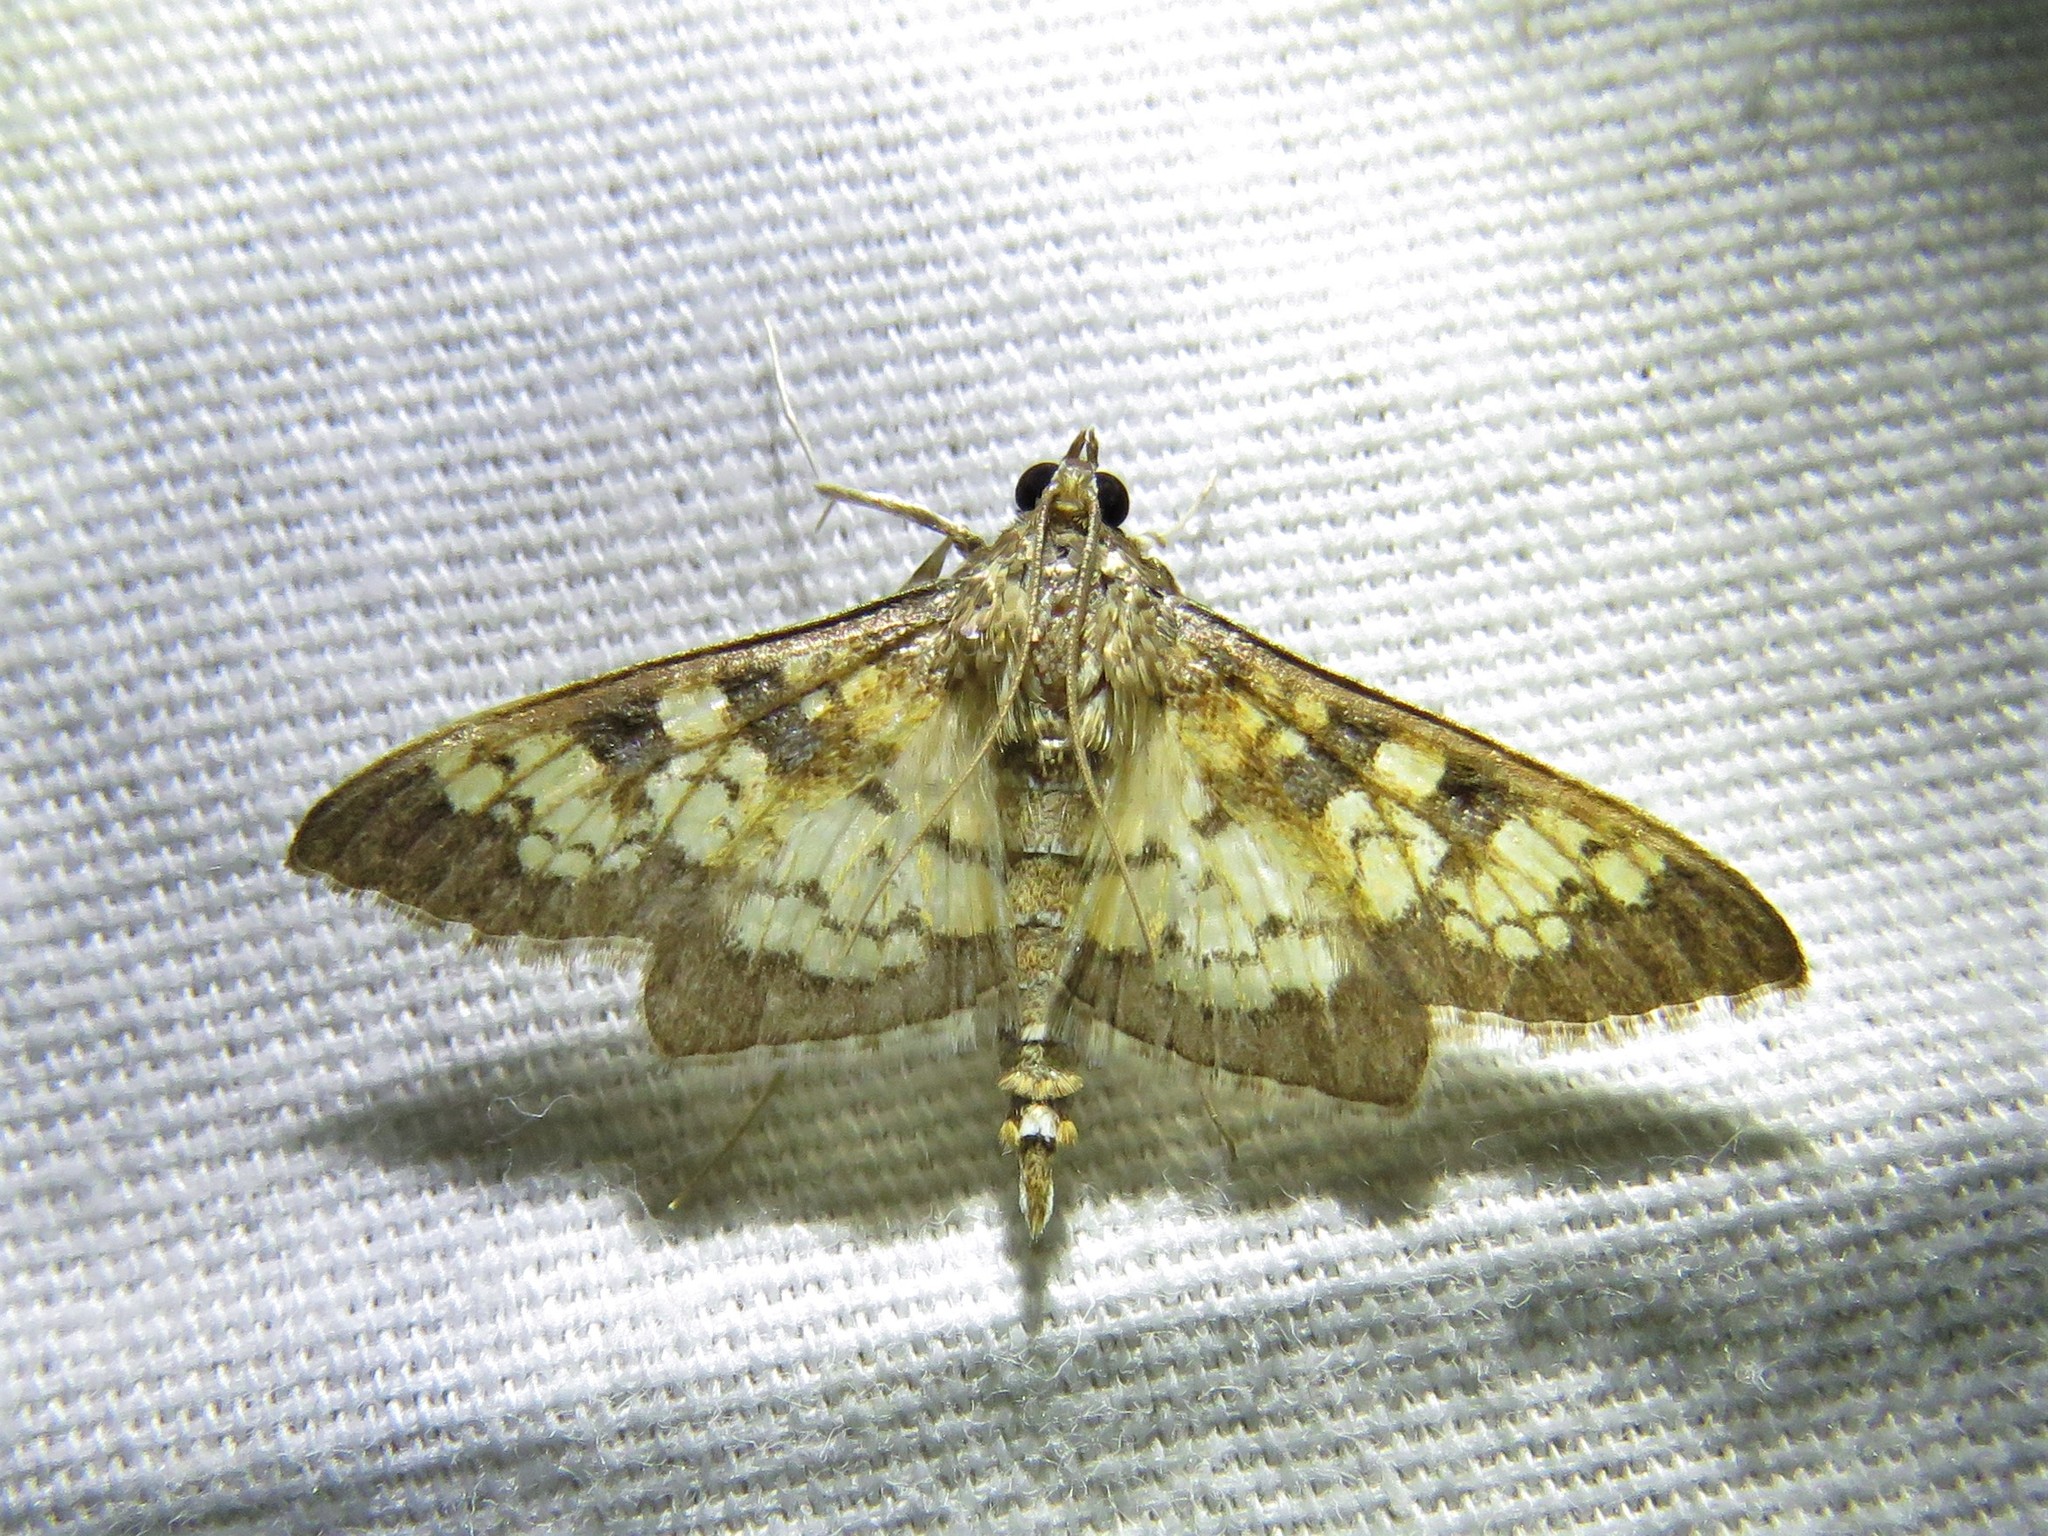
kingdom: Animalia
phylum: Arthropoda
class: Insecta
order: Lepidoptera
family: Crambidae
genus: Cryptographis
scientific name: Cryptographis elealis
